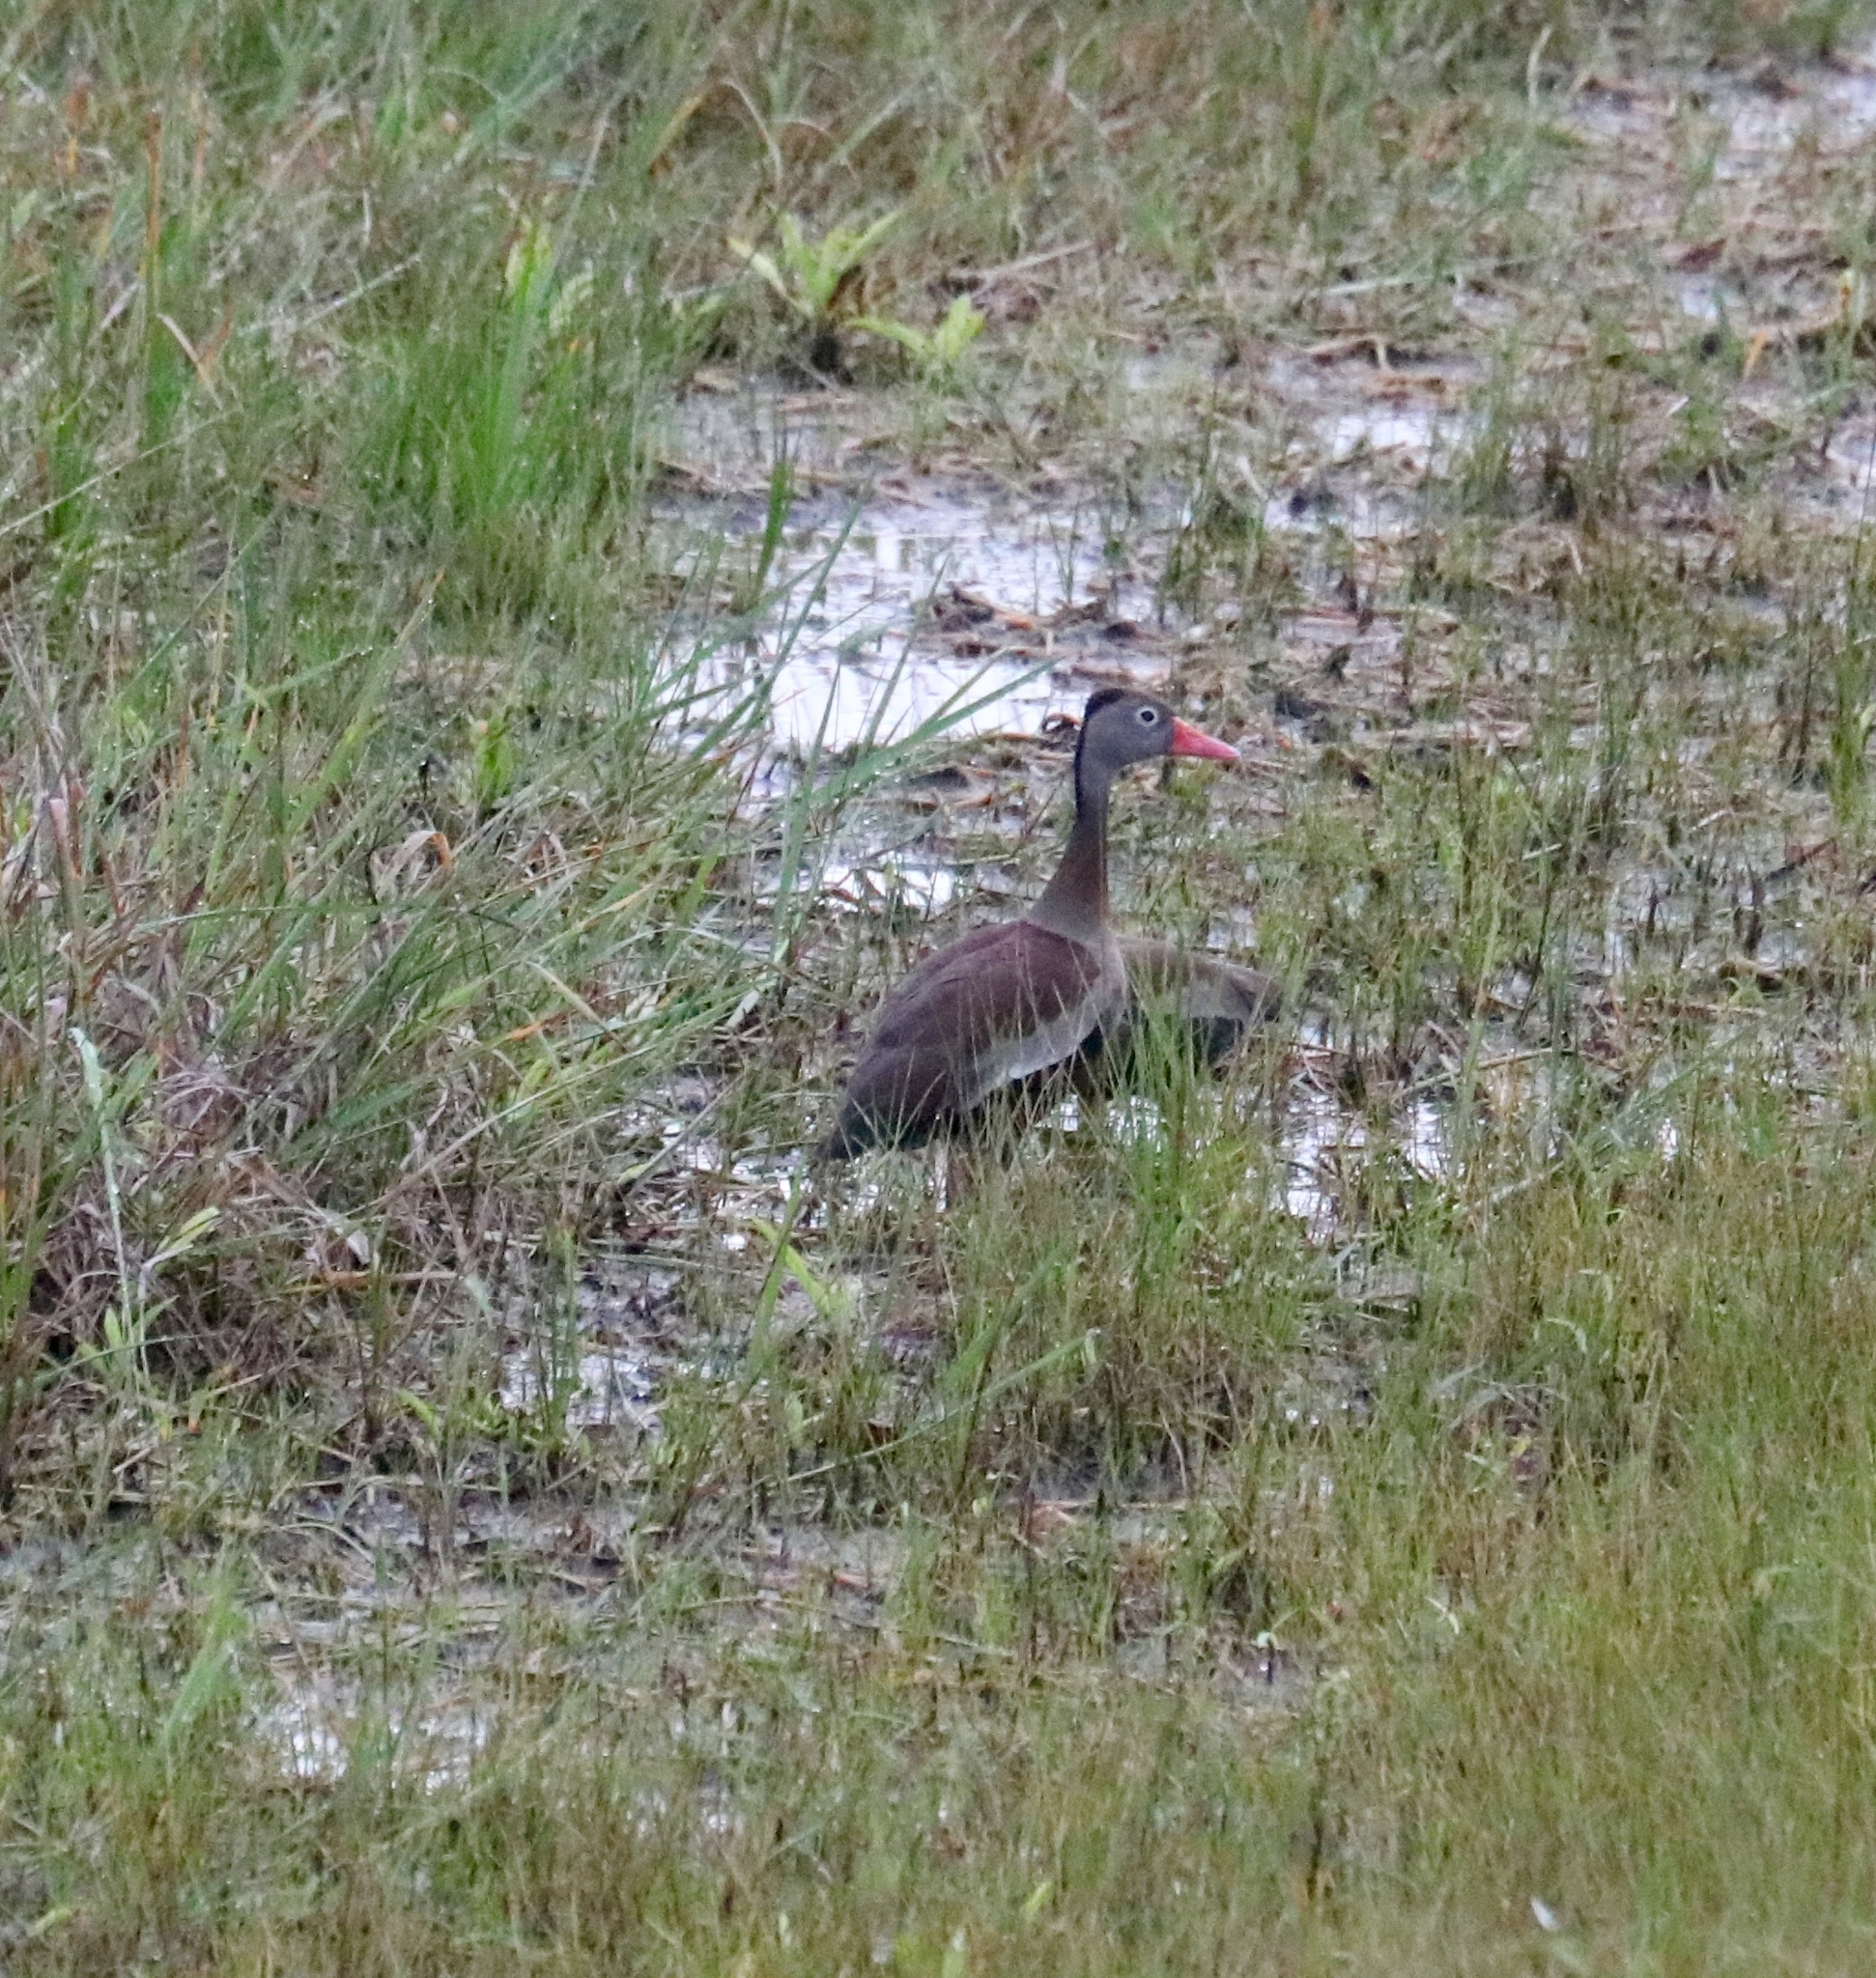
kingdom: Animalia
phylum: Chordata
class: Aves
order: Anseriformes
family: Anatidae
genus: Dendrocygna
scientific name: Dendrocygna autumnalis
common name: Black-bellied whistling duck
